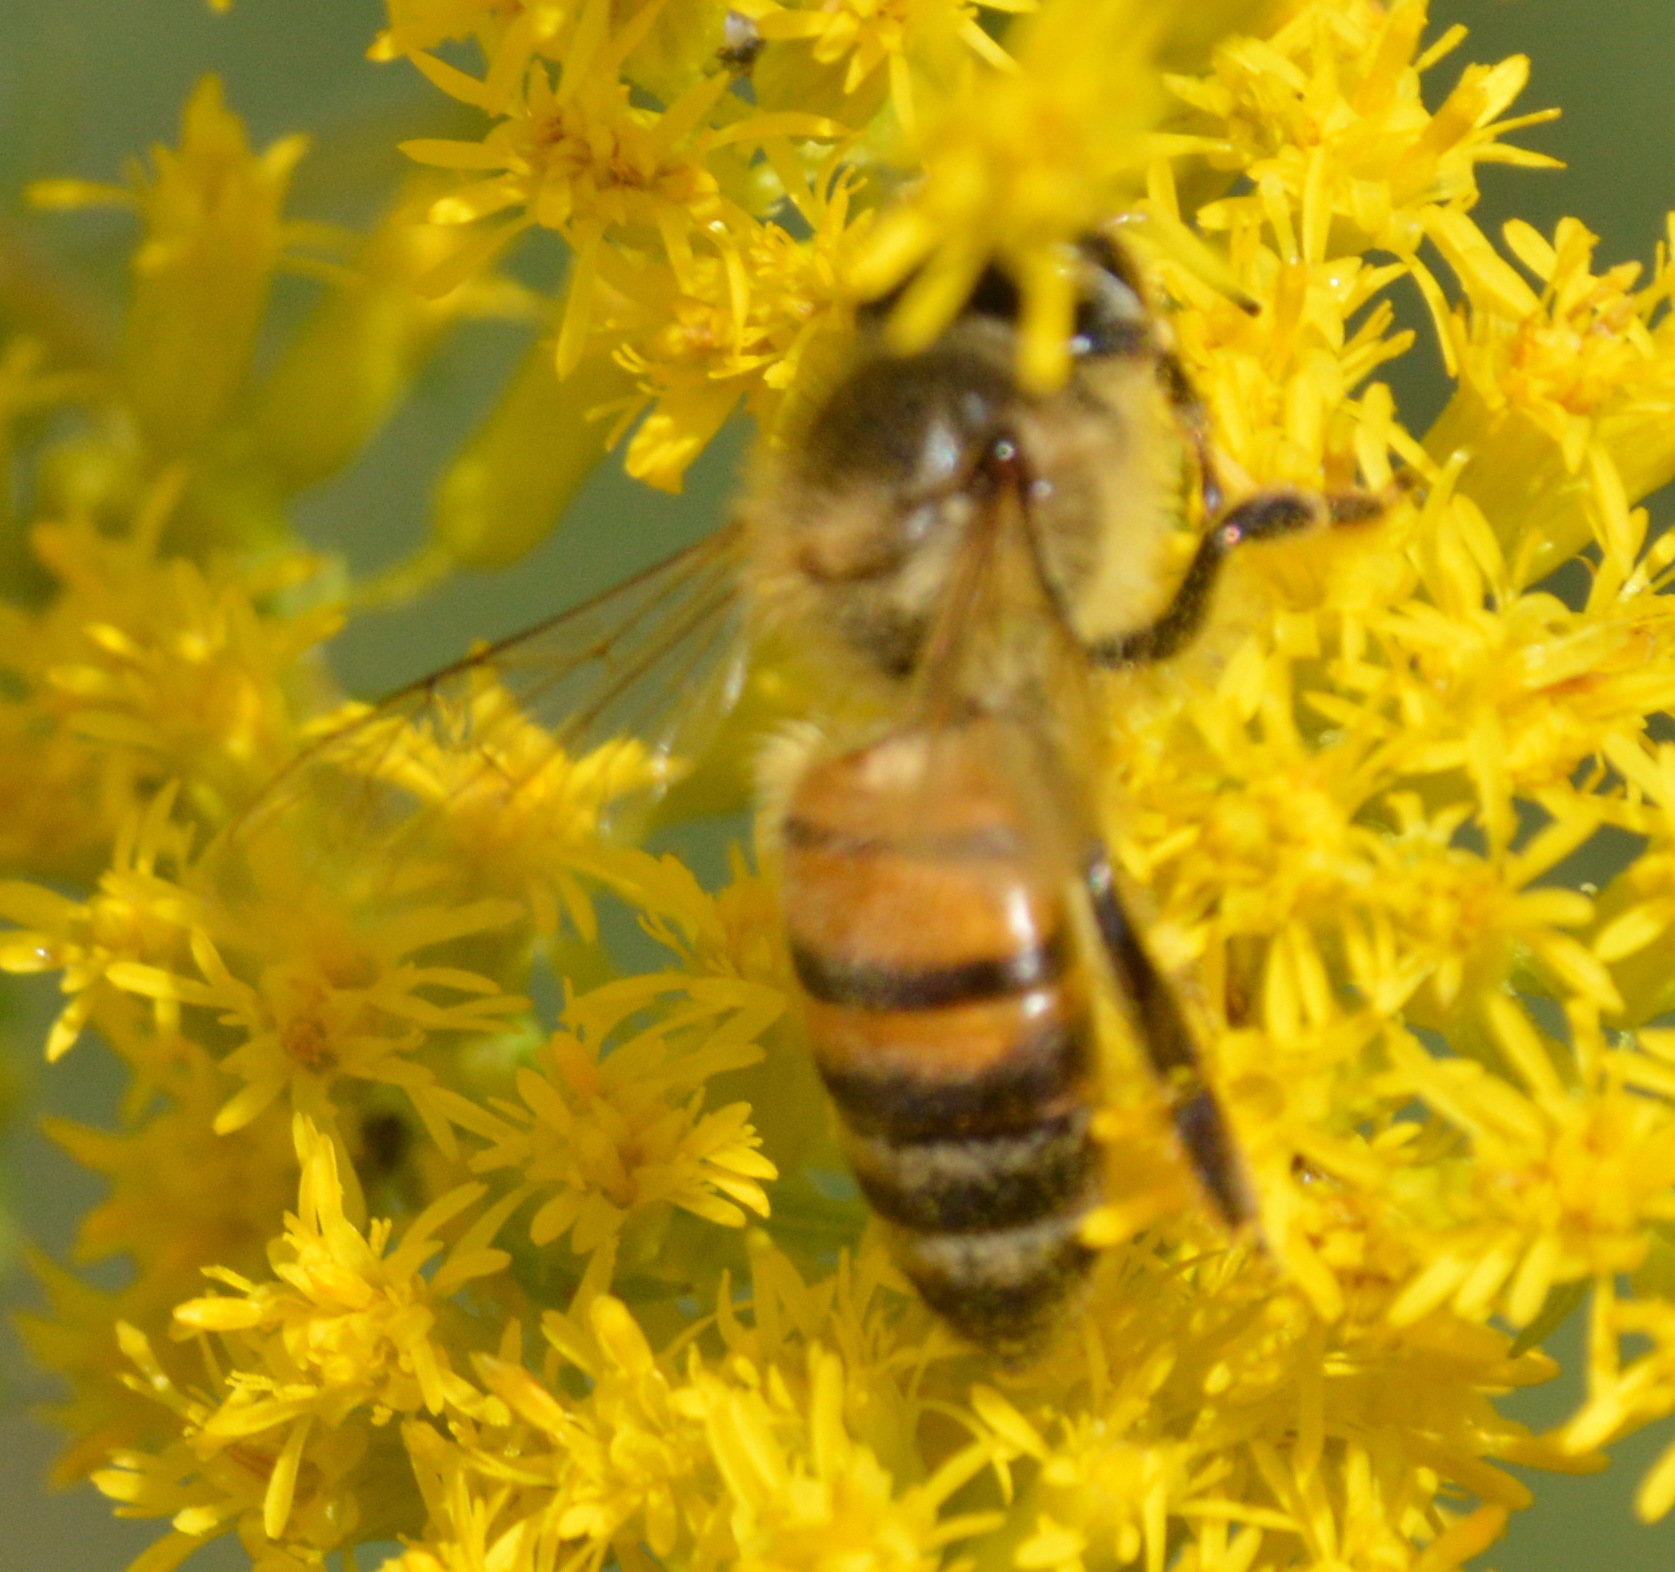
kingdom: Animalia
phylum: Arthropoda
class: Insecta
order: Hymenoptera
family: Apidae
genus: Apis
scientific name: Apis mellifera
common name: Honey bee
